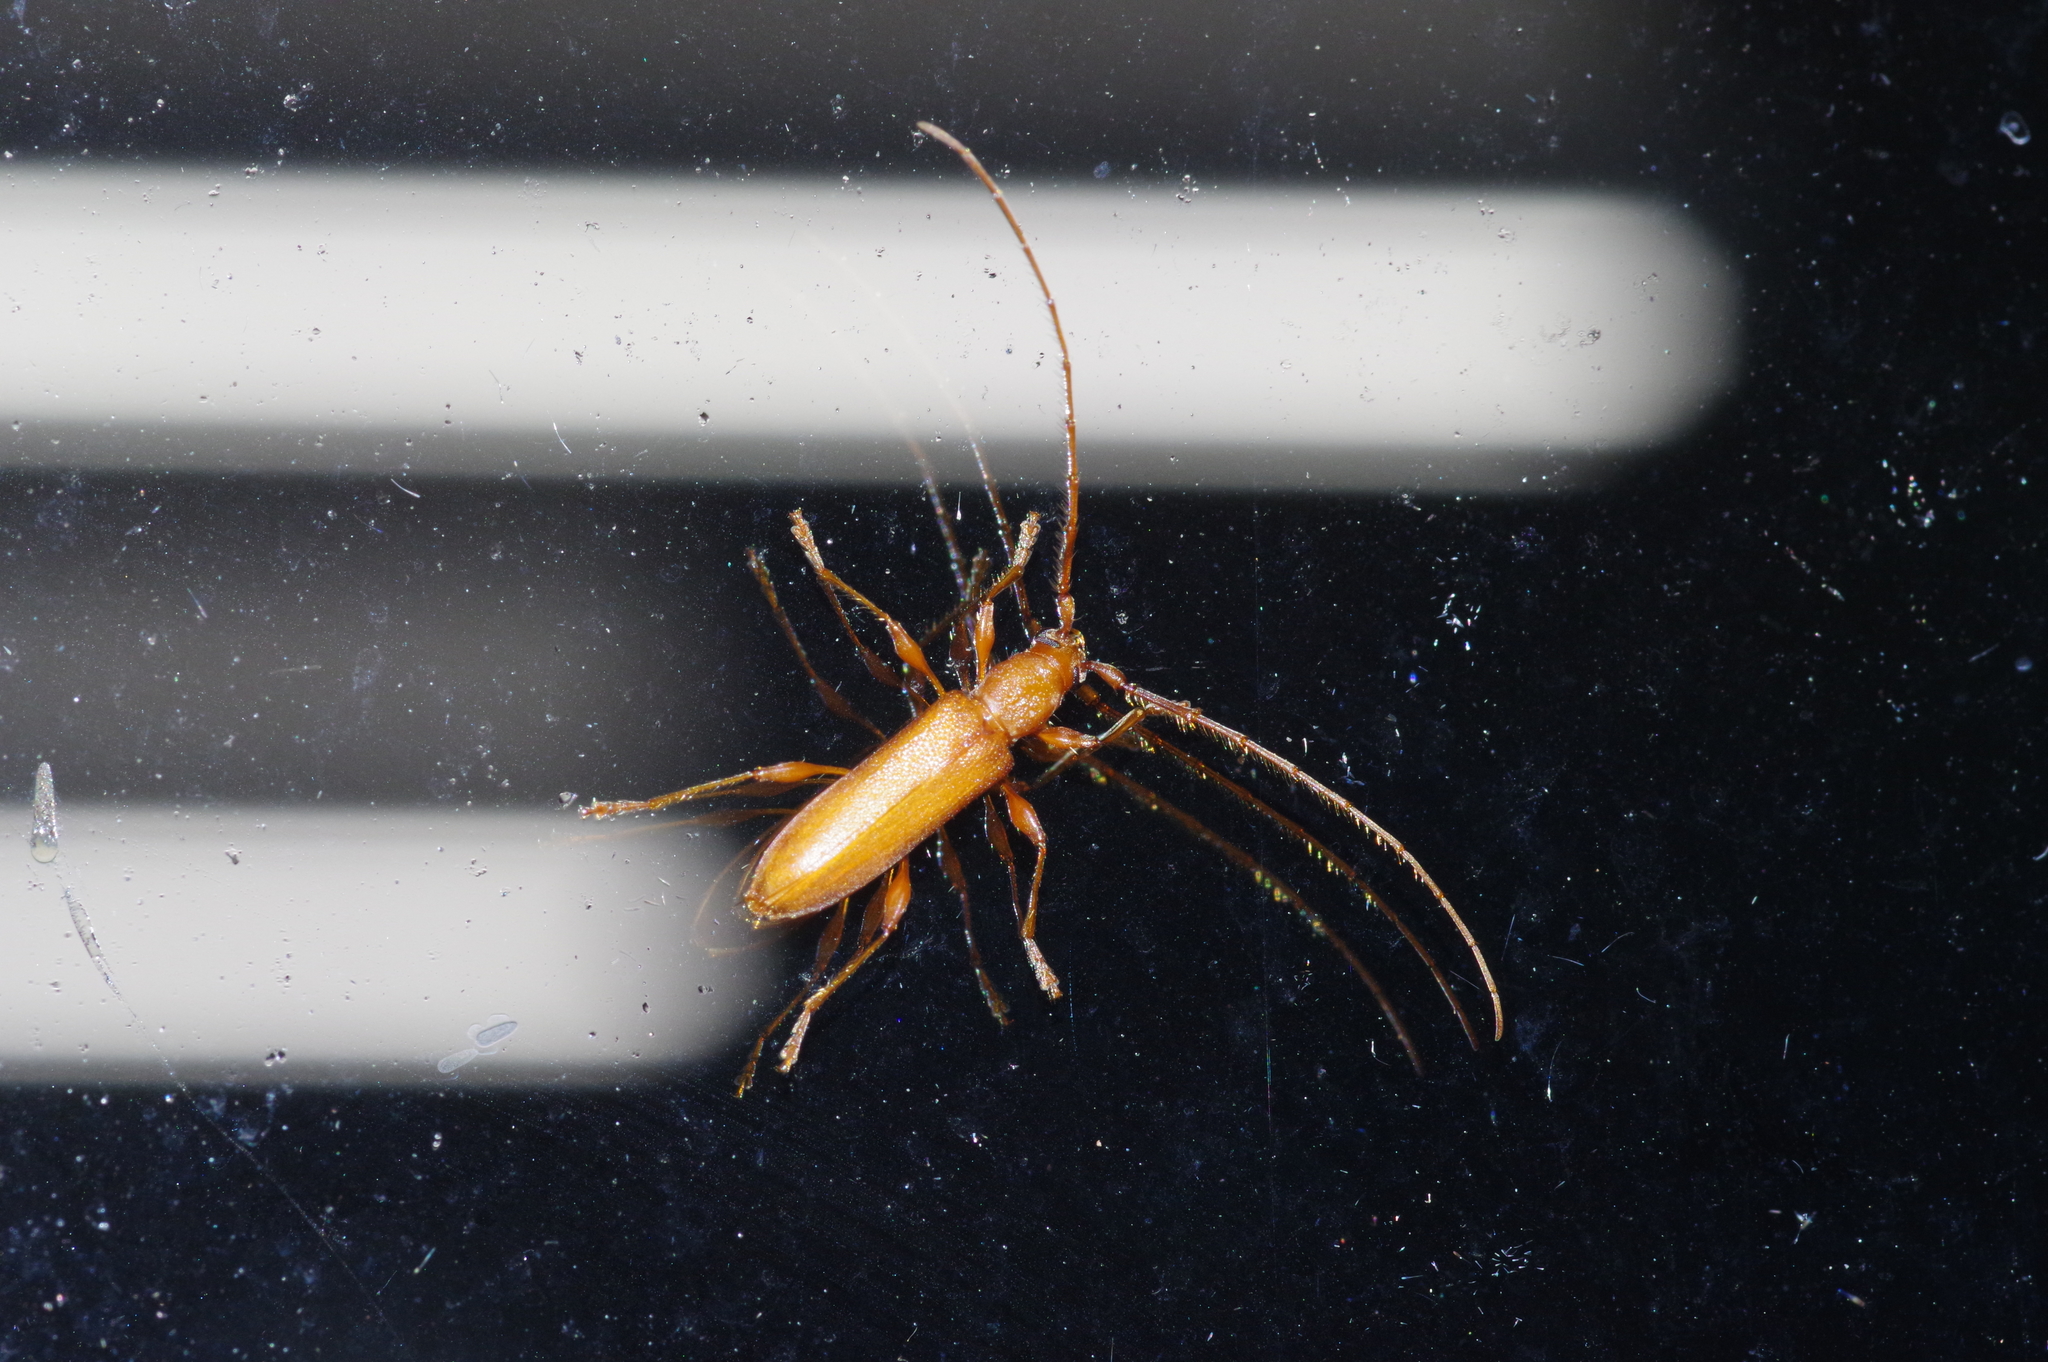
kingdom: Animalia
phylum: Arthropoda
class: Insecta
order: Coleoptera
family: Cerambycidae
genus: Nysina
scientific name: Nysina insularis
